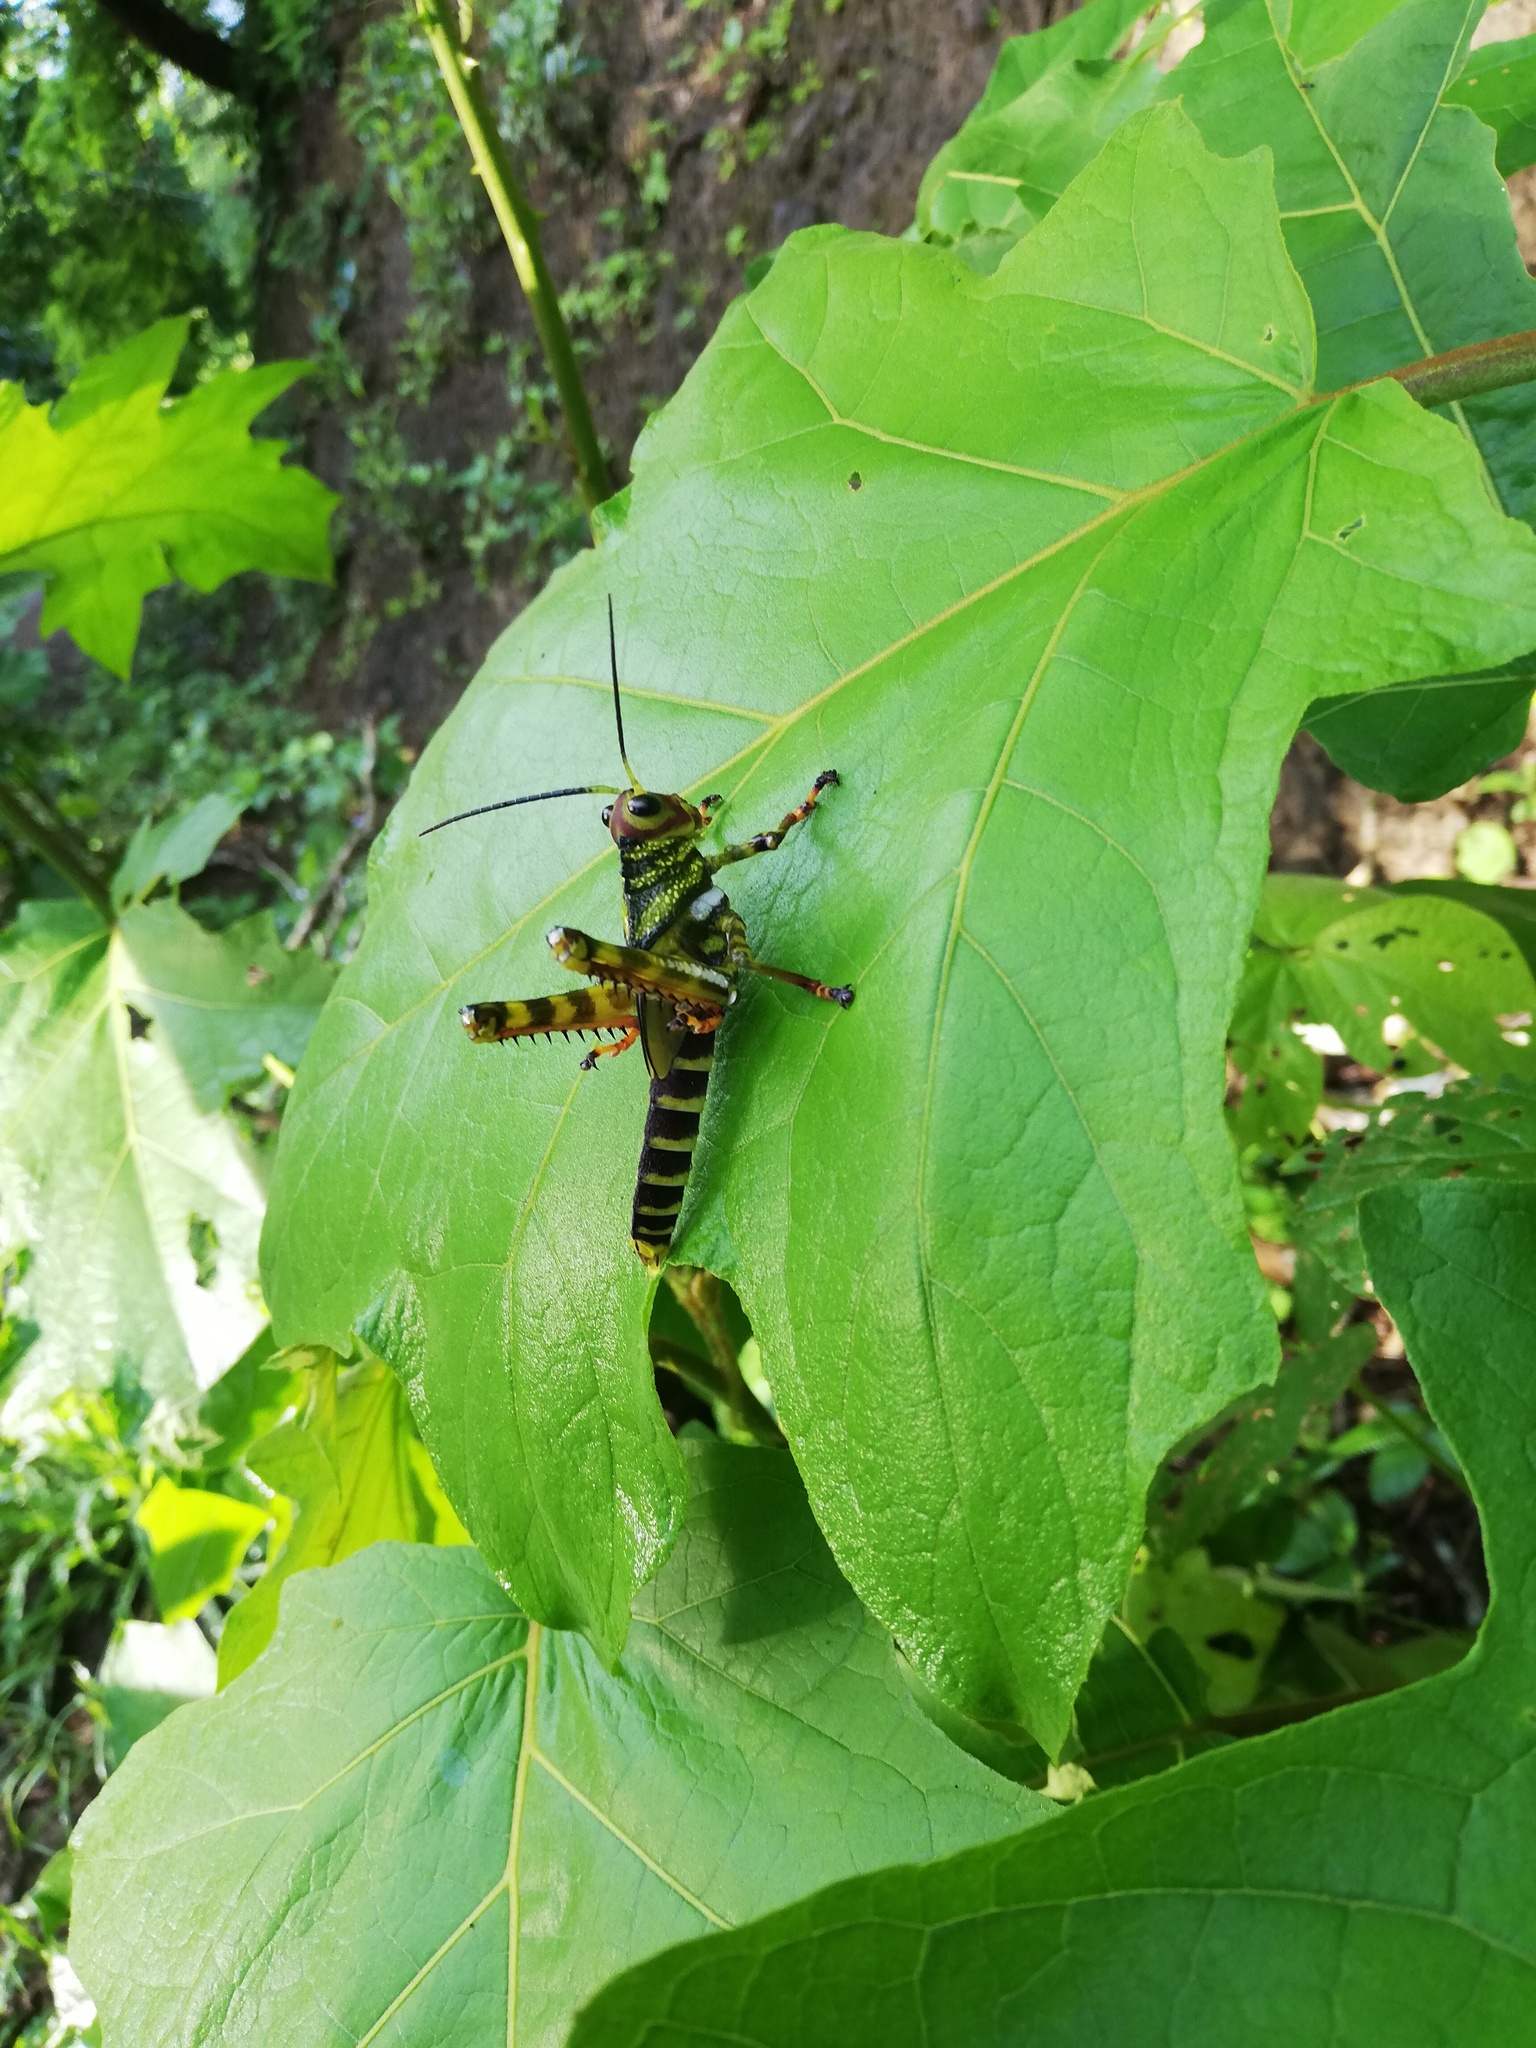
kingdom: Animalia
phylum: Arthropoda
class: Insecta
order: Orthoptera
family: Romaleidae
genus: Tropidacris
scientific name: Tropidacris cristata
